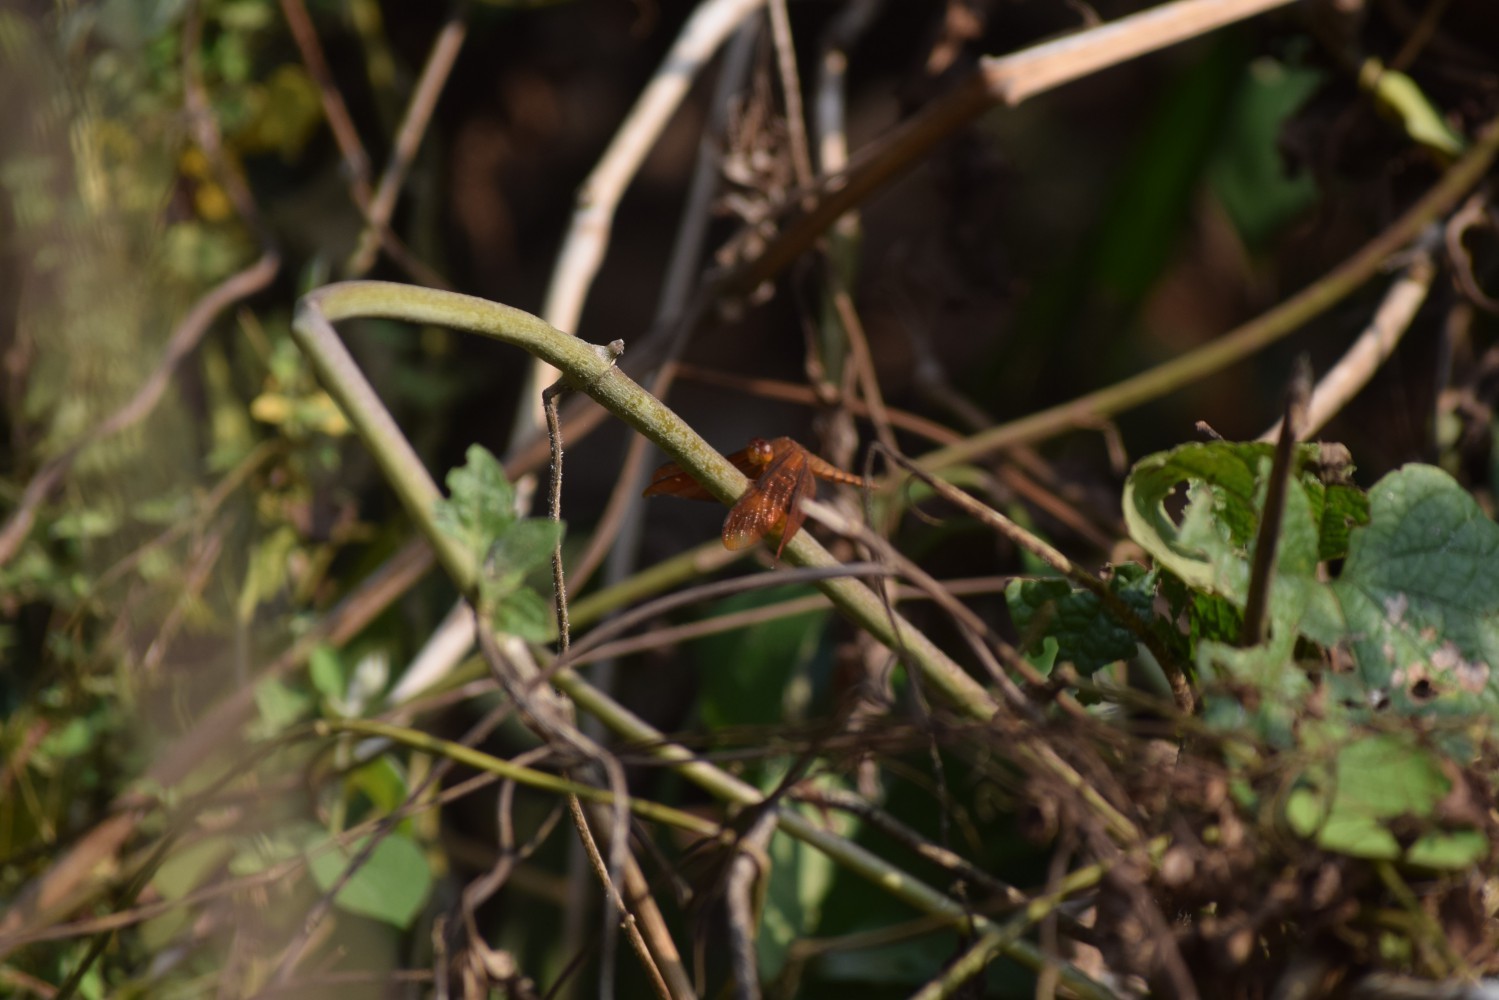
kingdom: Animalia
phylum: Arthropoda
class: Insecta
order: Odonata
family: Libellulidae
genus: Neurothemis
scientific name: Neurothemis fulvia
